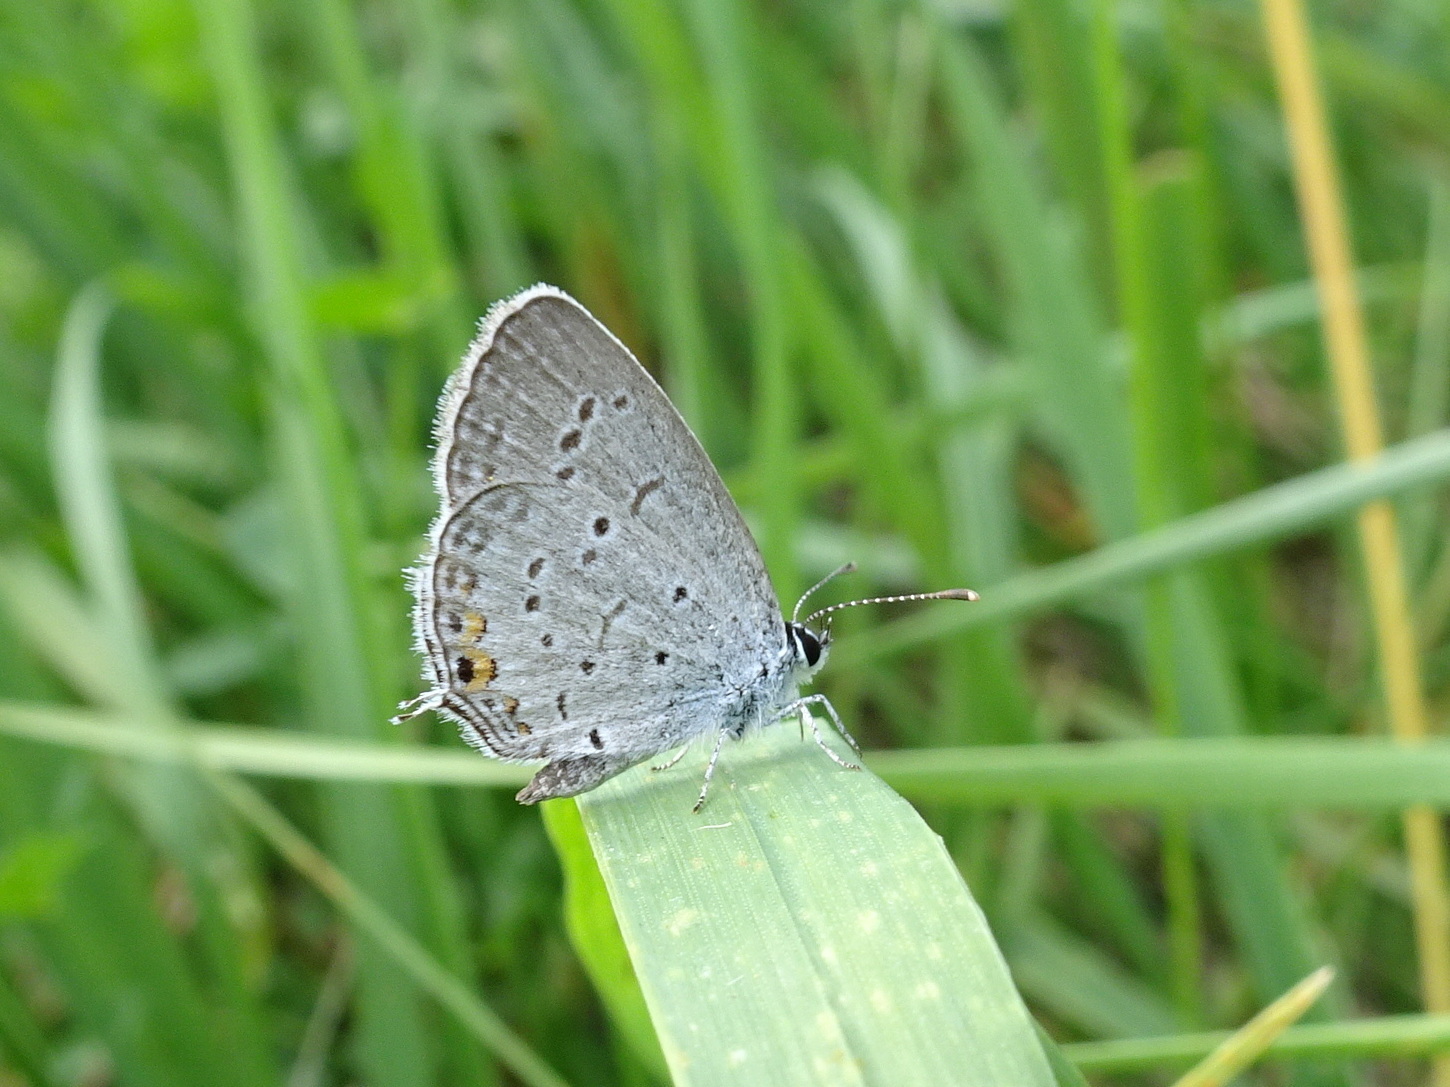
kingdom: Animalia
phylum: Arthropoda
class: Insecta
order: Lepidoptera
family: Lycaenidae
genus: Elkalyce
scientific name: Elkalyce comyntas
